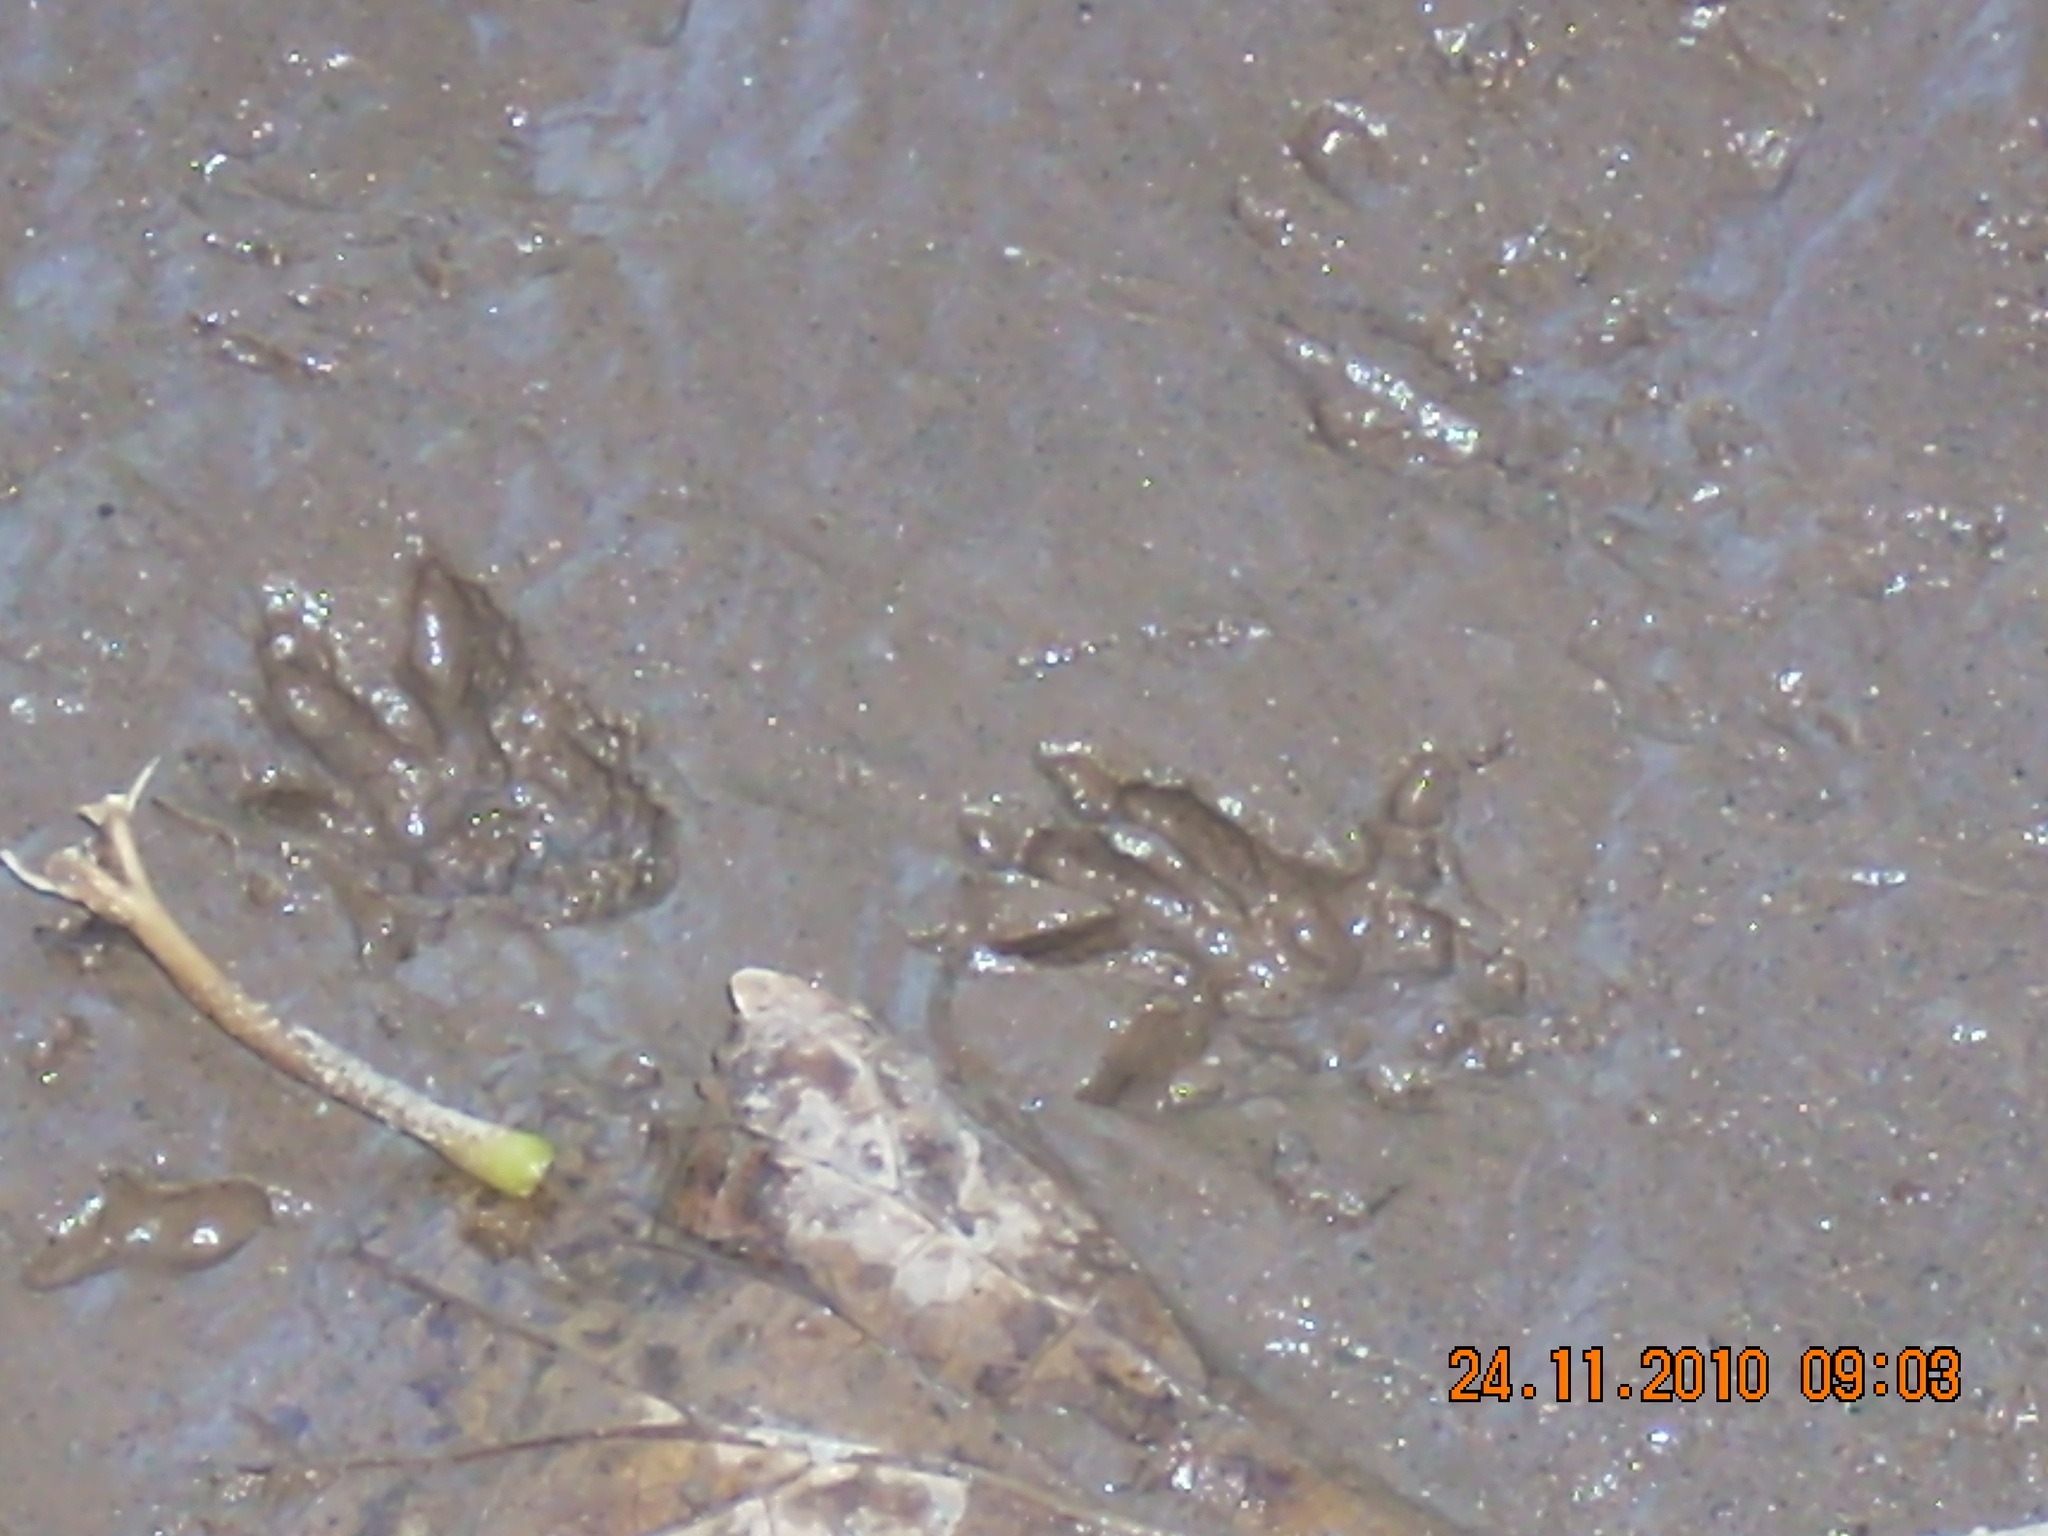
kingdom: Animalia
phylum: Chordata
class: Mammalia
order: Didelphimorphia
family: Didelphidae
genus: Didelphis
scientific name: Didelphis albiventris
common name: White-eared opossum
